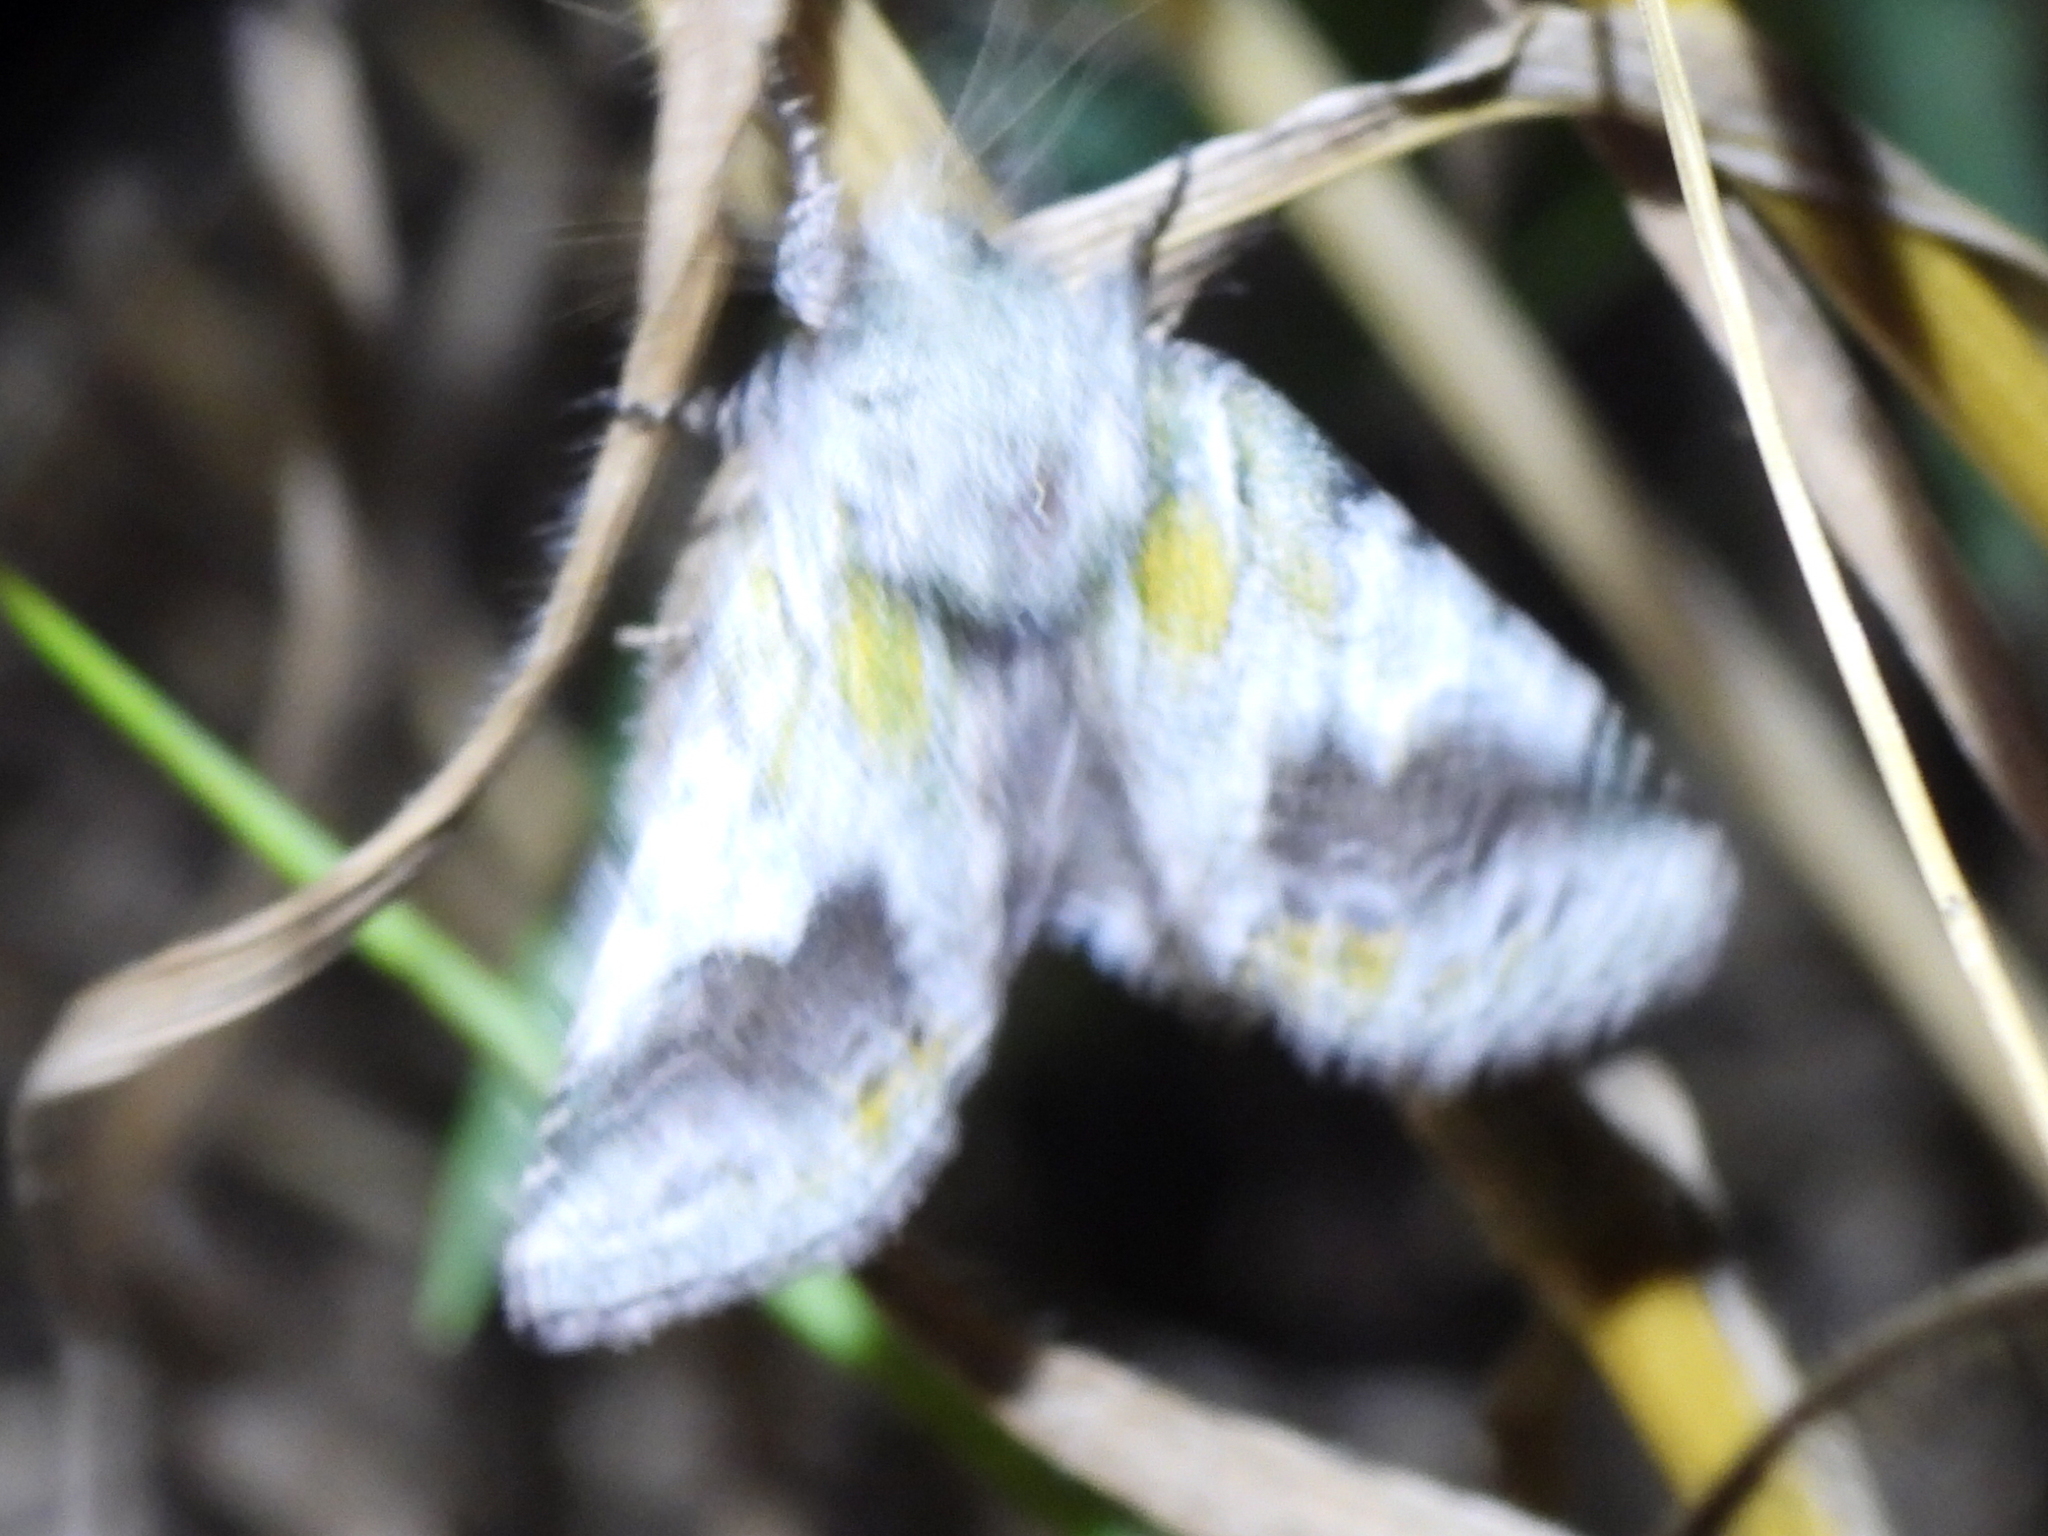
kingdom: Animalia
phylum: Arthropoda
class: Insecta
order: Lepidoptera
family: Notodontidae
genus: Litodonta
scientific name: Litodonta hydromeli
